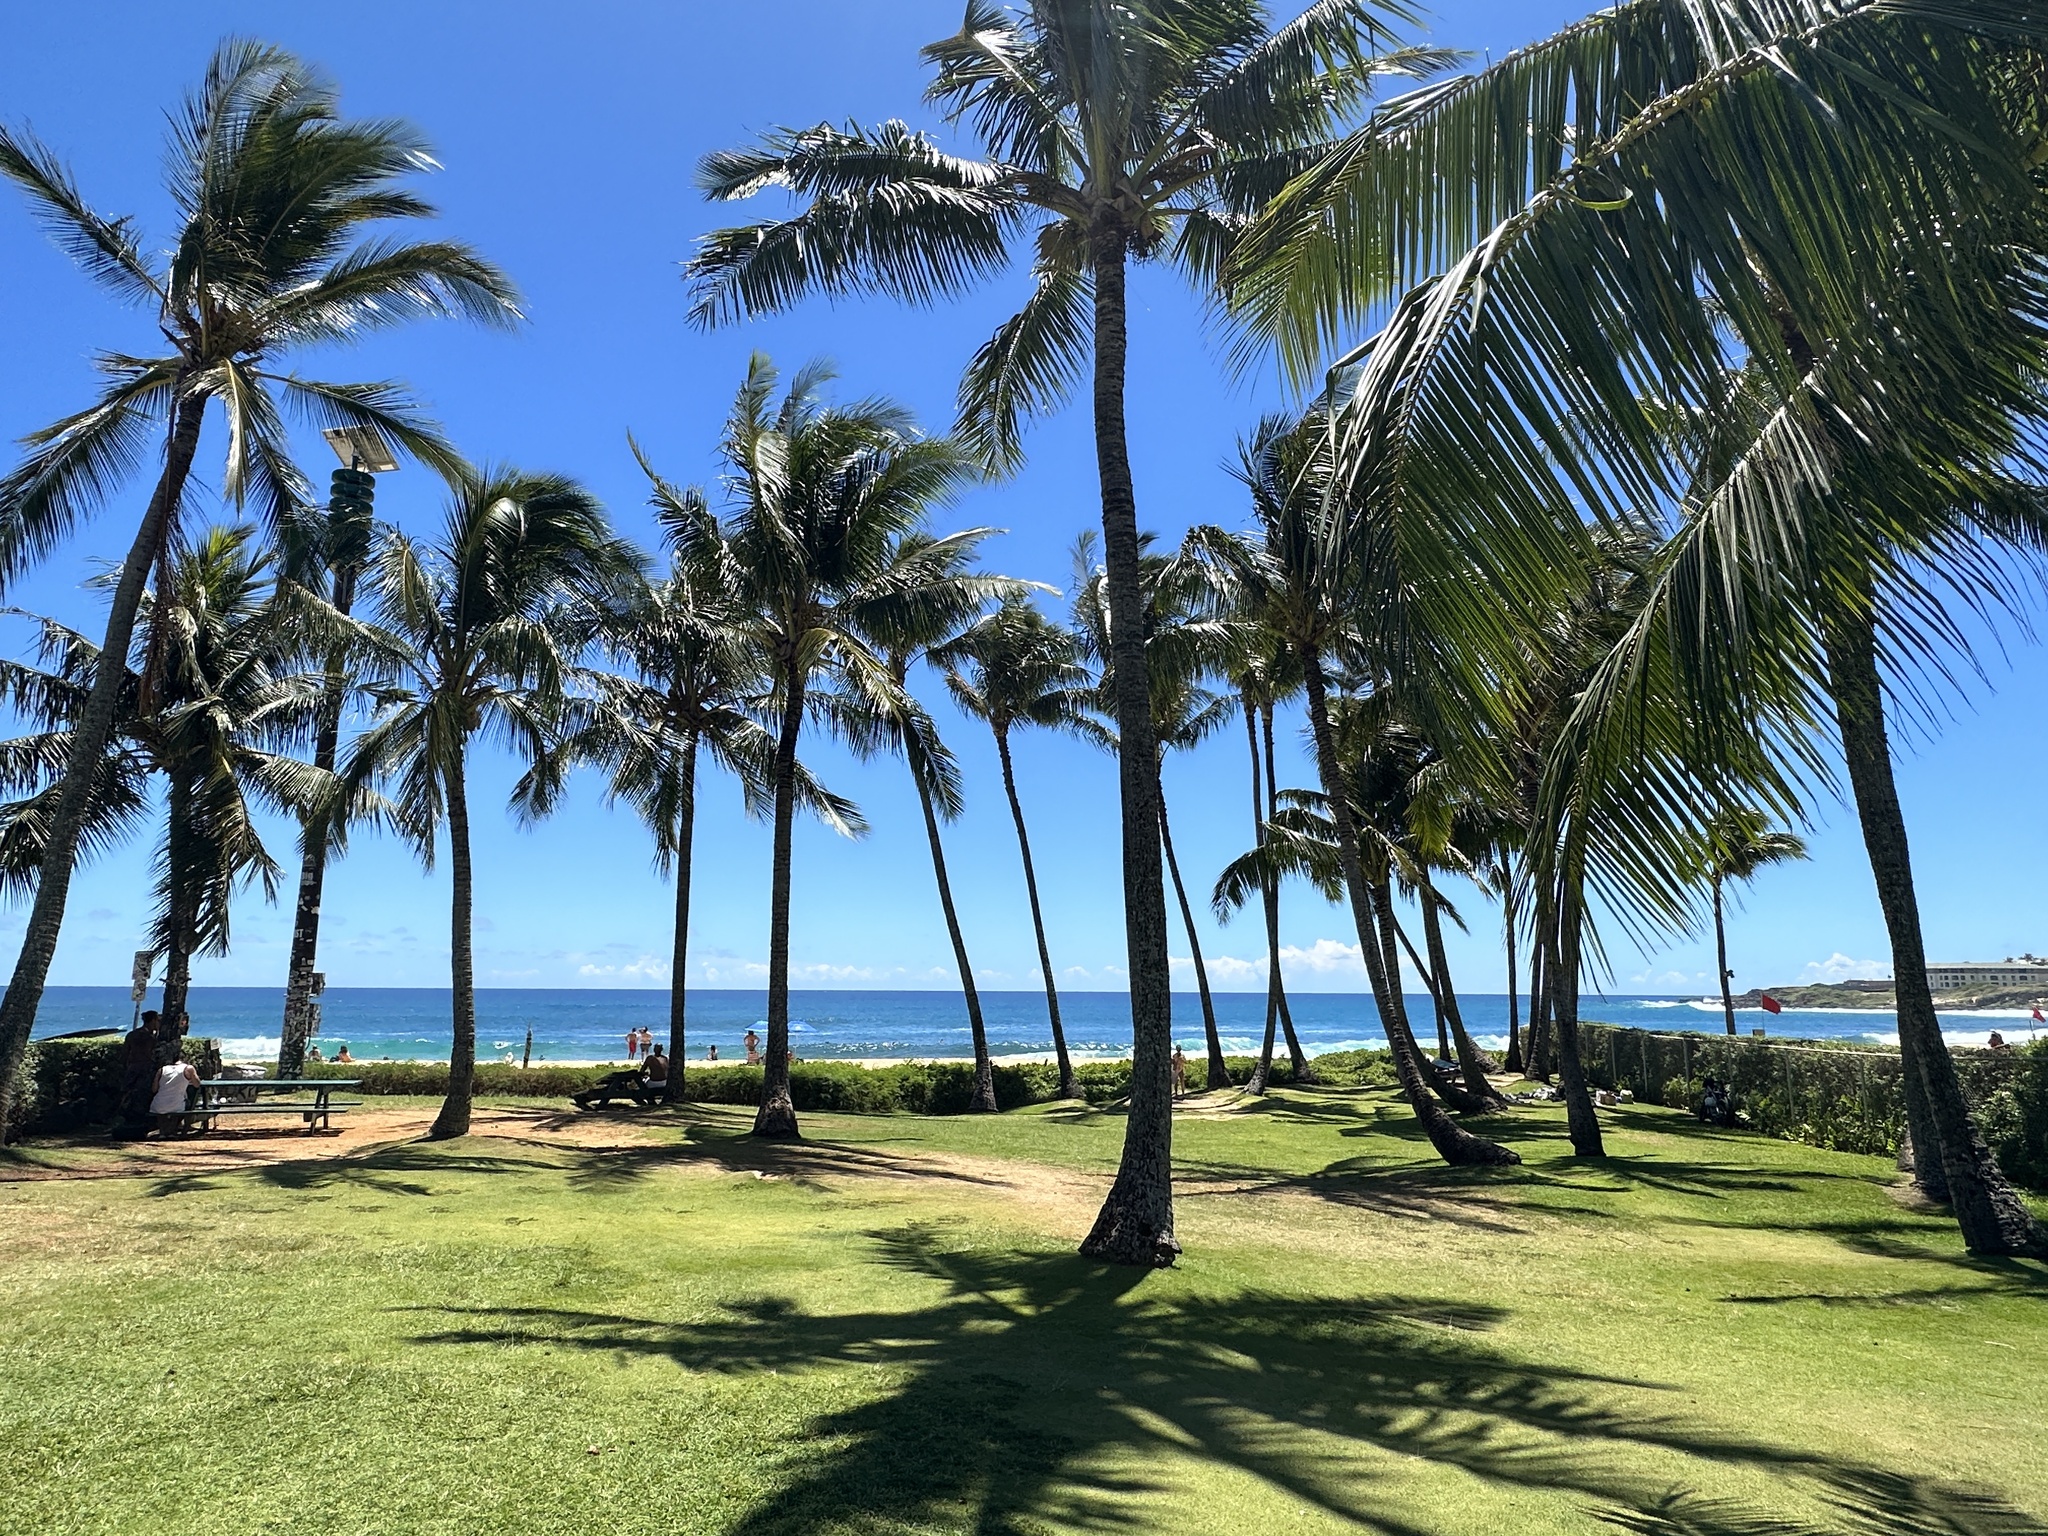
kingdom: Plantae
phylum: Tracheophyta
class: Liliopsida
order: Arecales
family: Arecaceae
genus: Cocos
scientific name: Cocos nucifera
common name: Coconut palm
